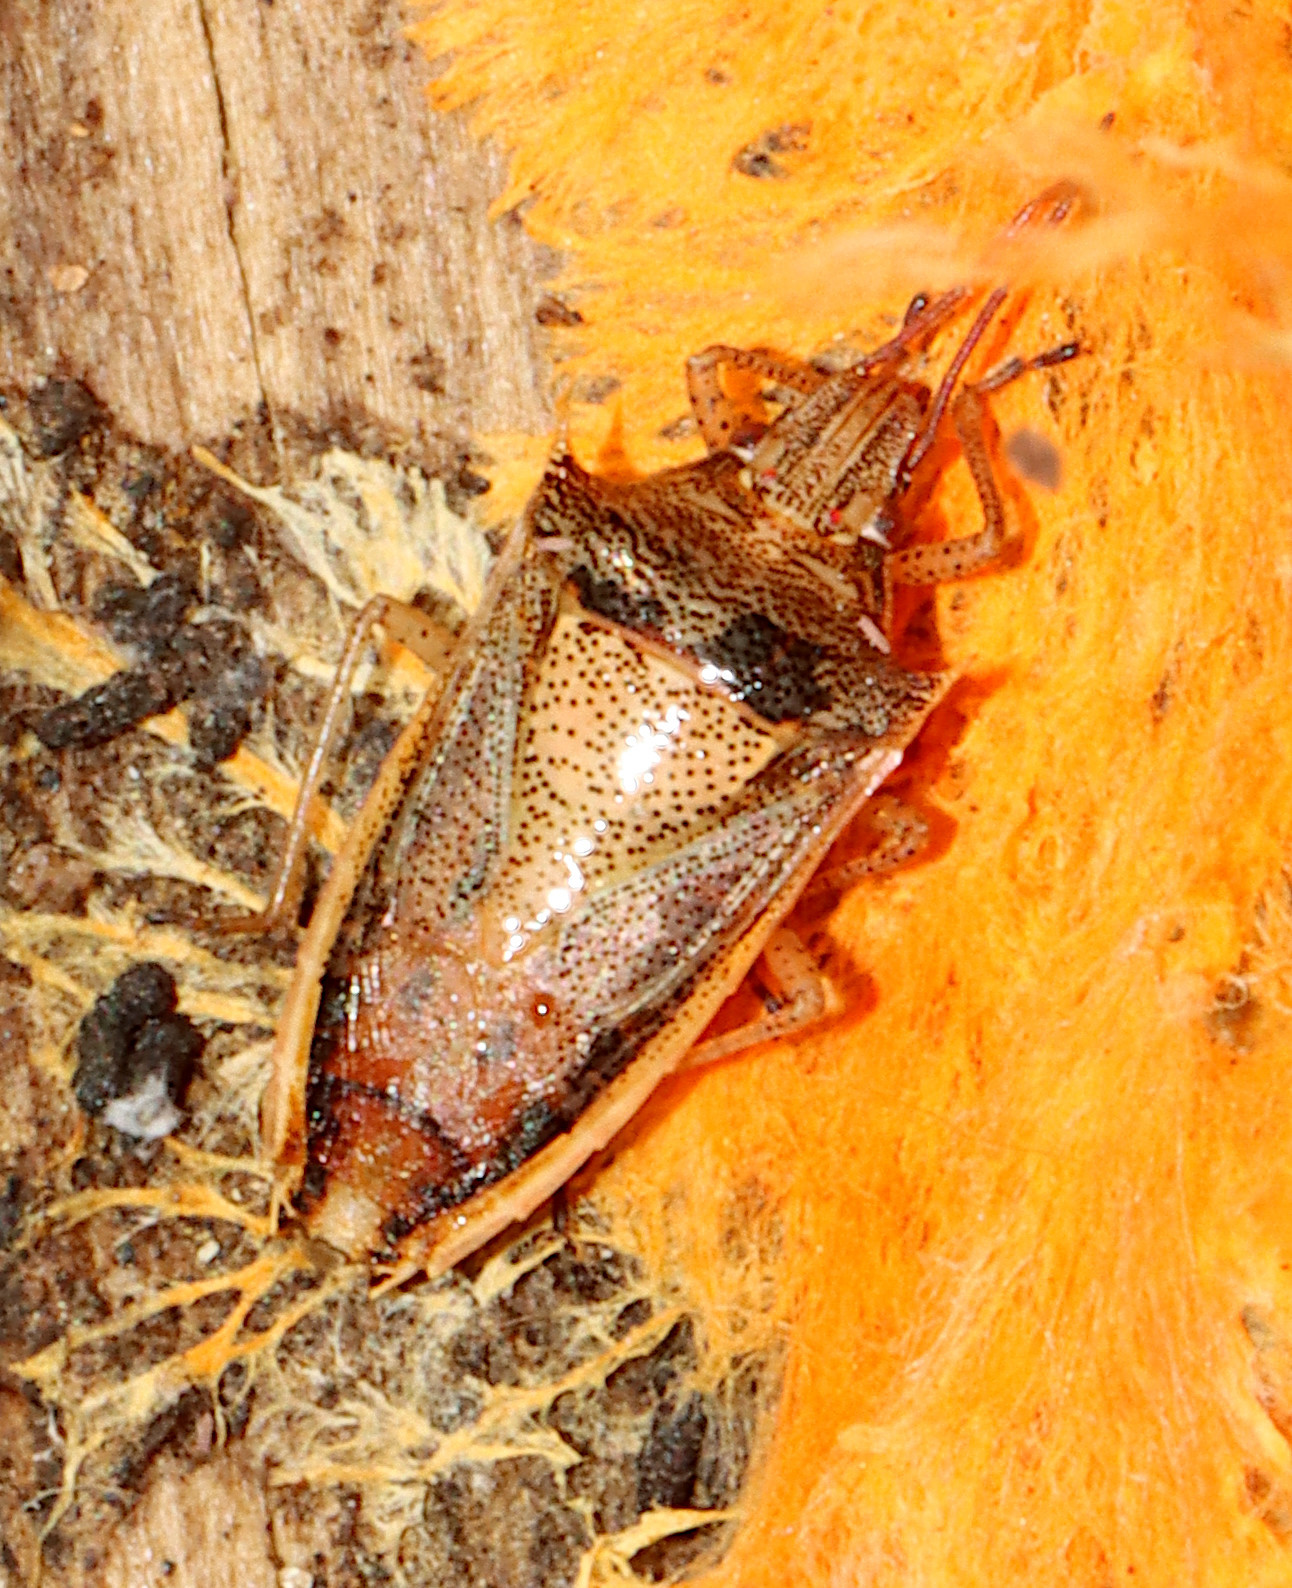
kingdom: Animalia
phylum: Arthropoda
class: Insecta
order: Hemiptera
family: Pentatomidae
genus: Oebalus
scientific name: Oebalus pugnax
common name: Rice stink bug
